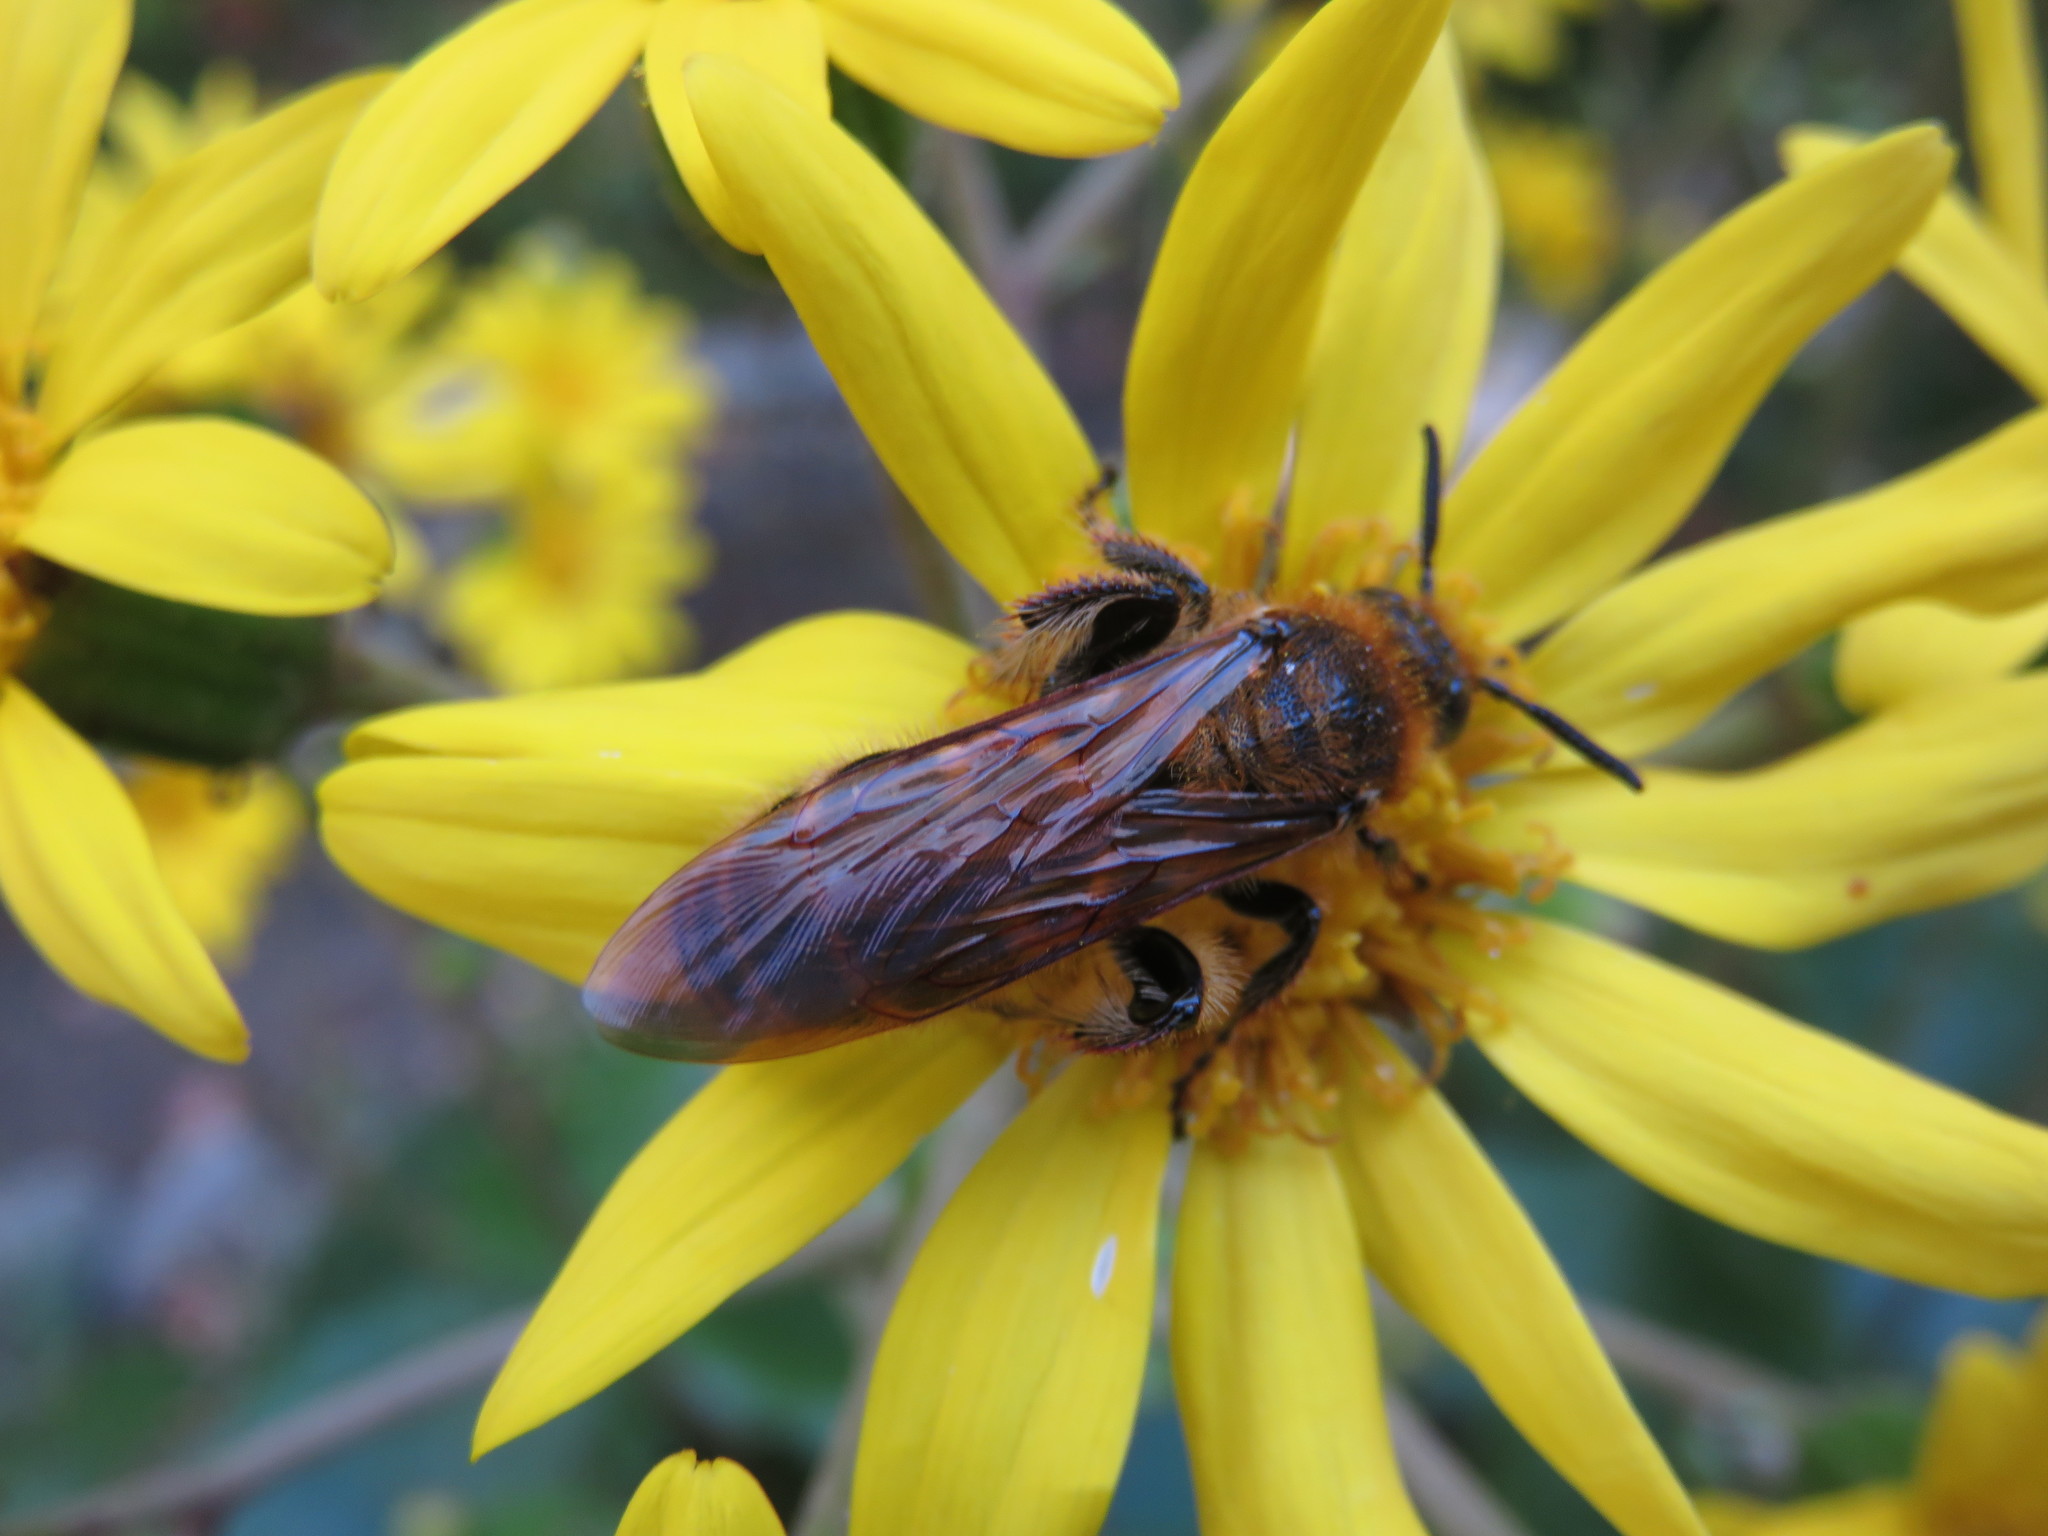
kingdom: Animalia
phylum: Arthropoda
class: Insecta
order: Hymenoptera
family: Scoliidae
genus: Campsomeris
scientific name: Campsomeris prismatica
